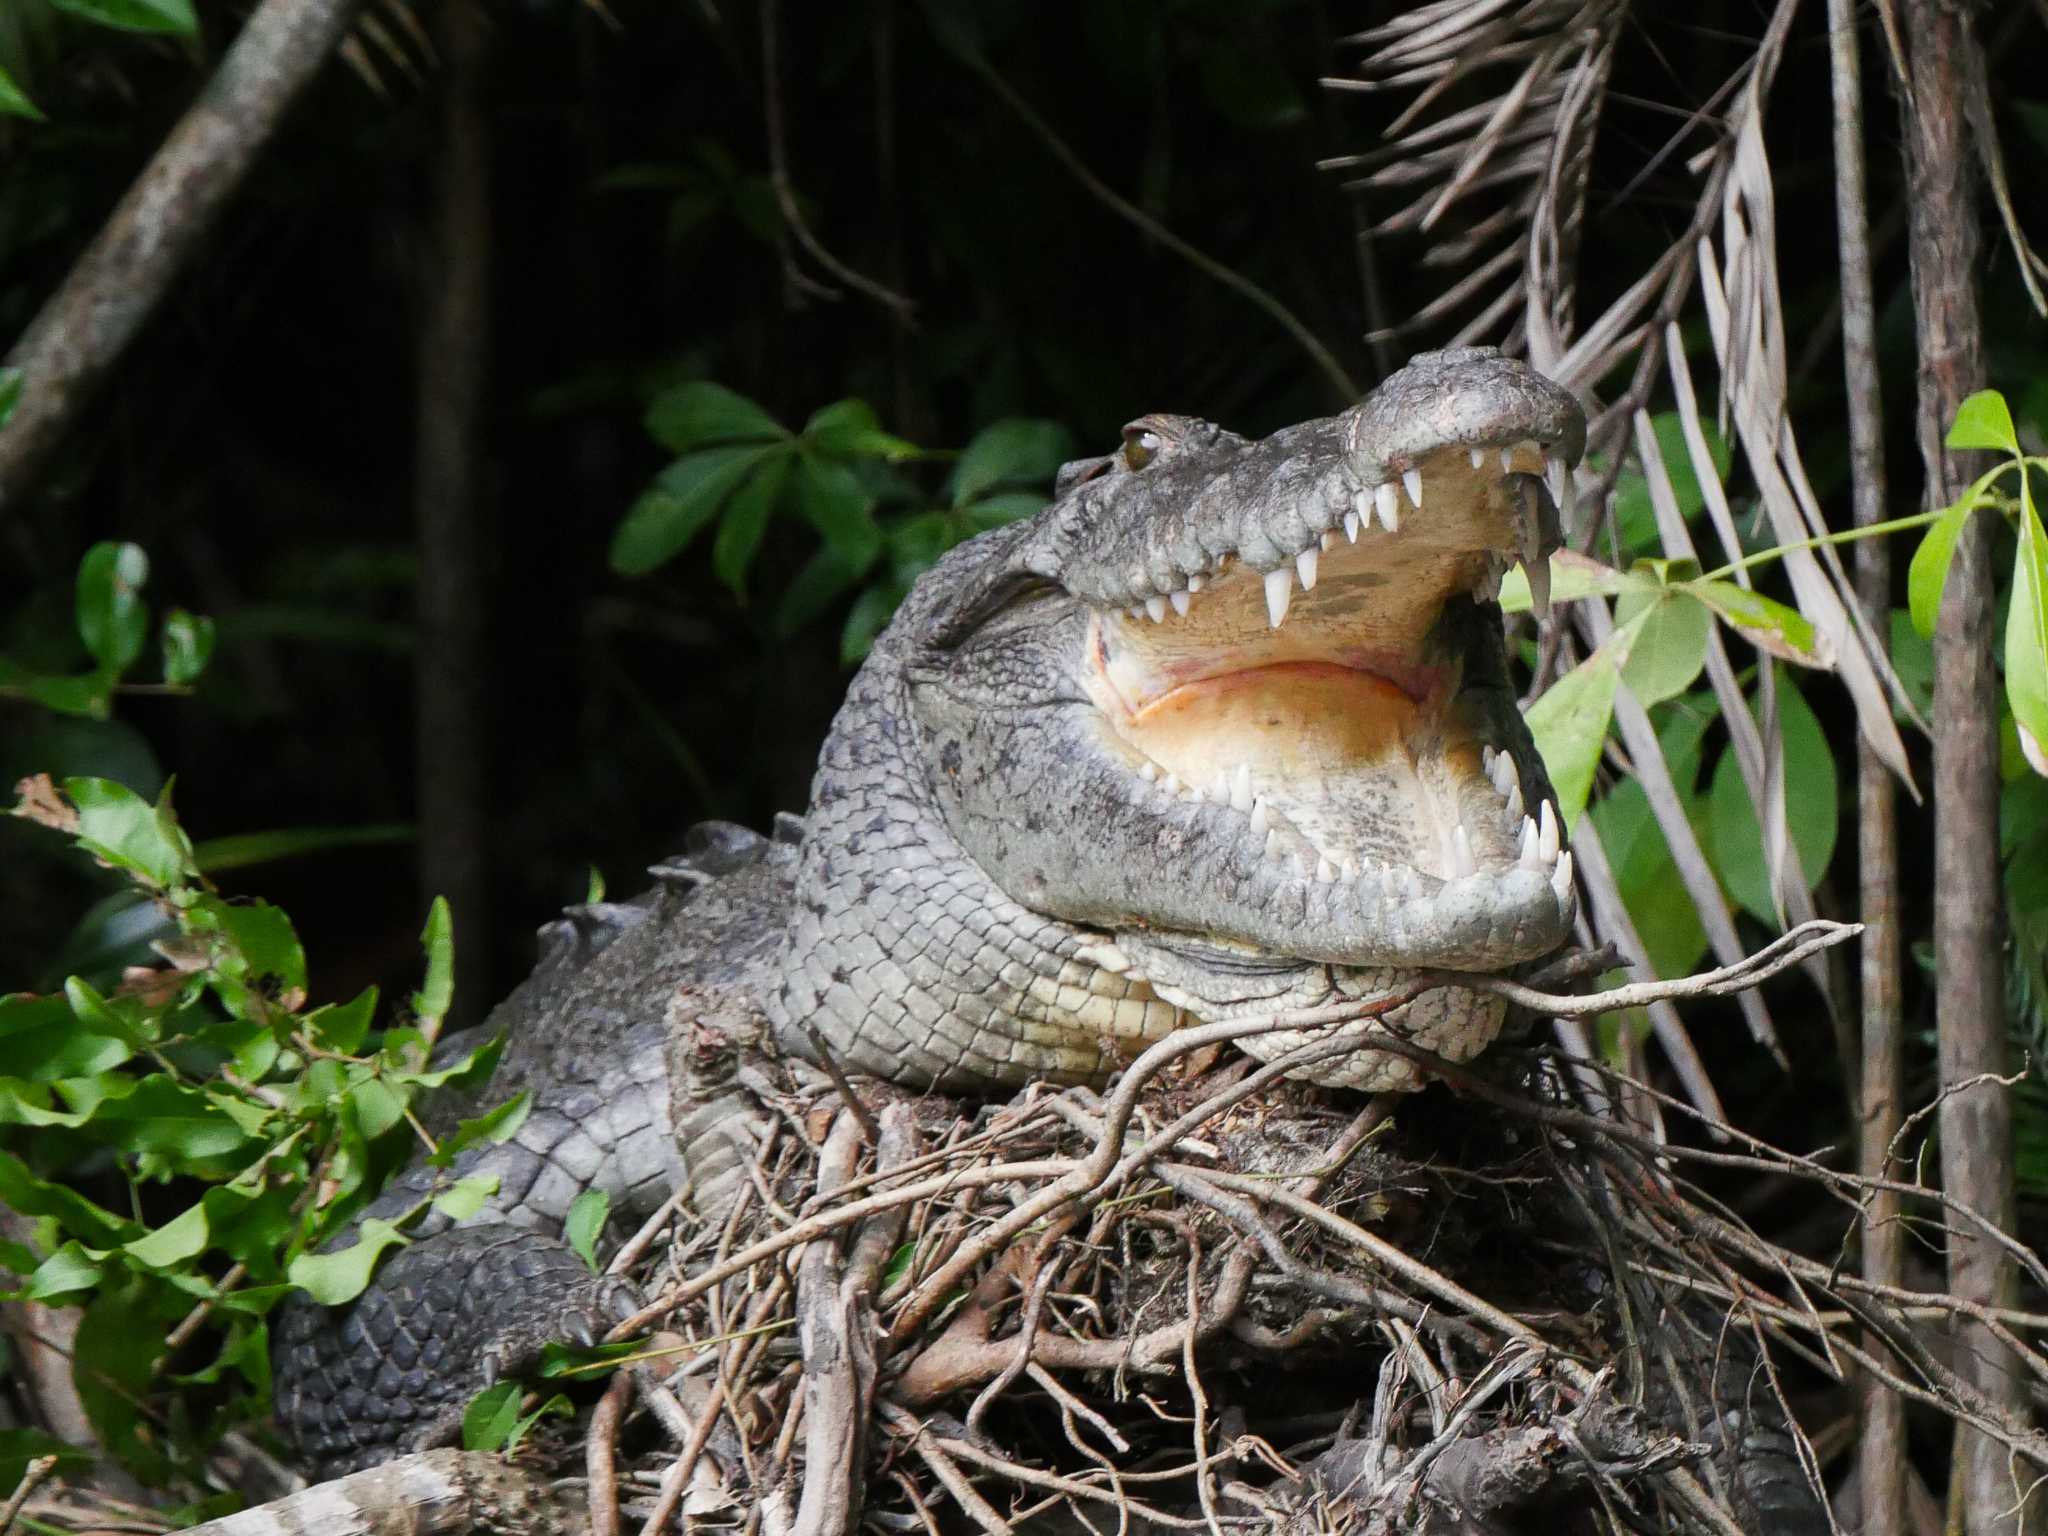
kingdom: Animalia
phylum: Chordata
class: Crocodylia
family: Crocodylidae
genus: Crocodylus
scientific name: Crocodylus acutus
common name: American crocodile
